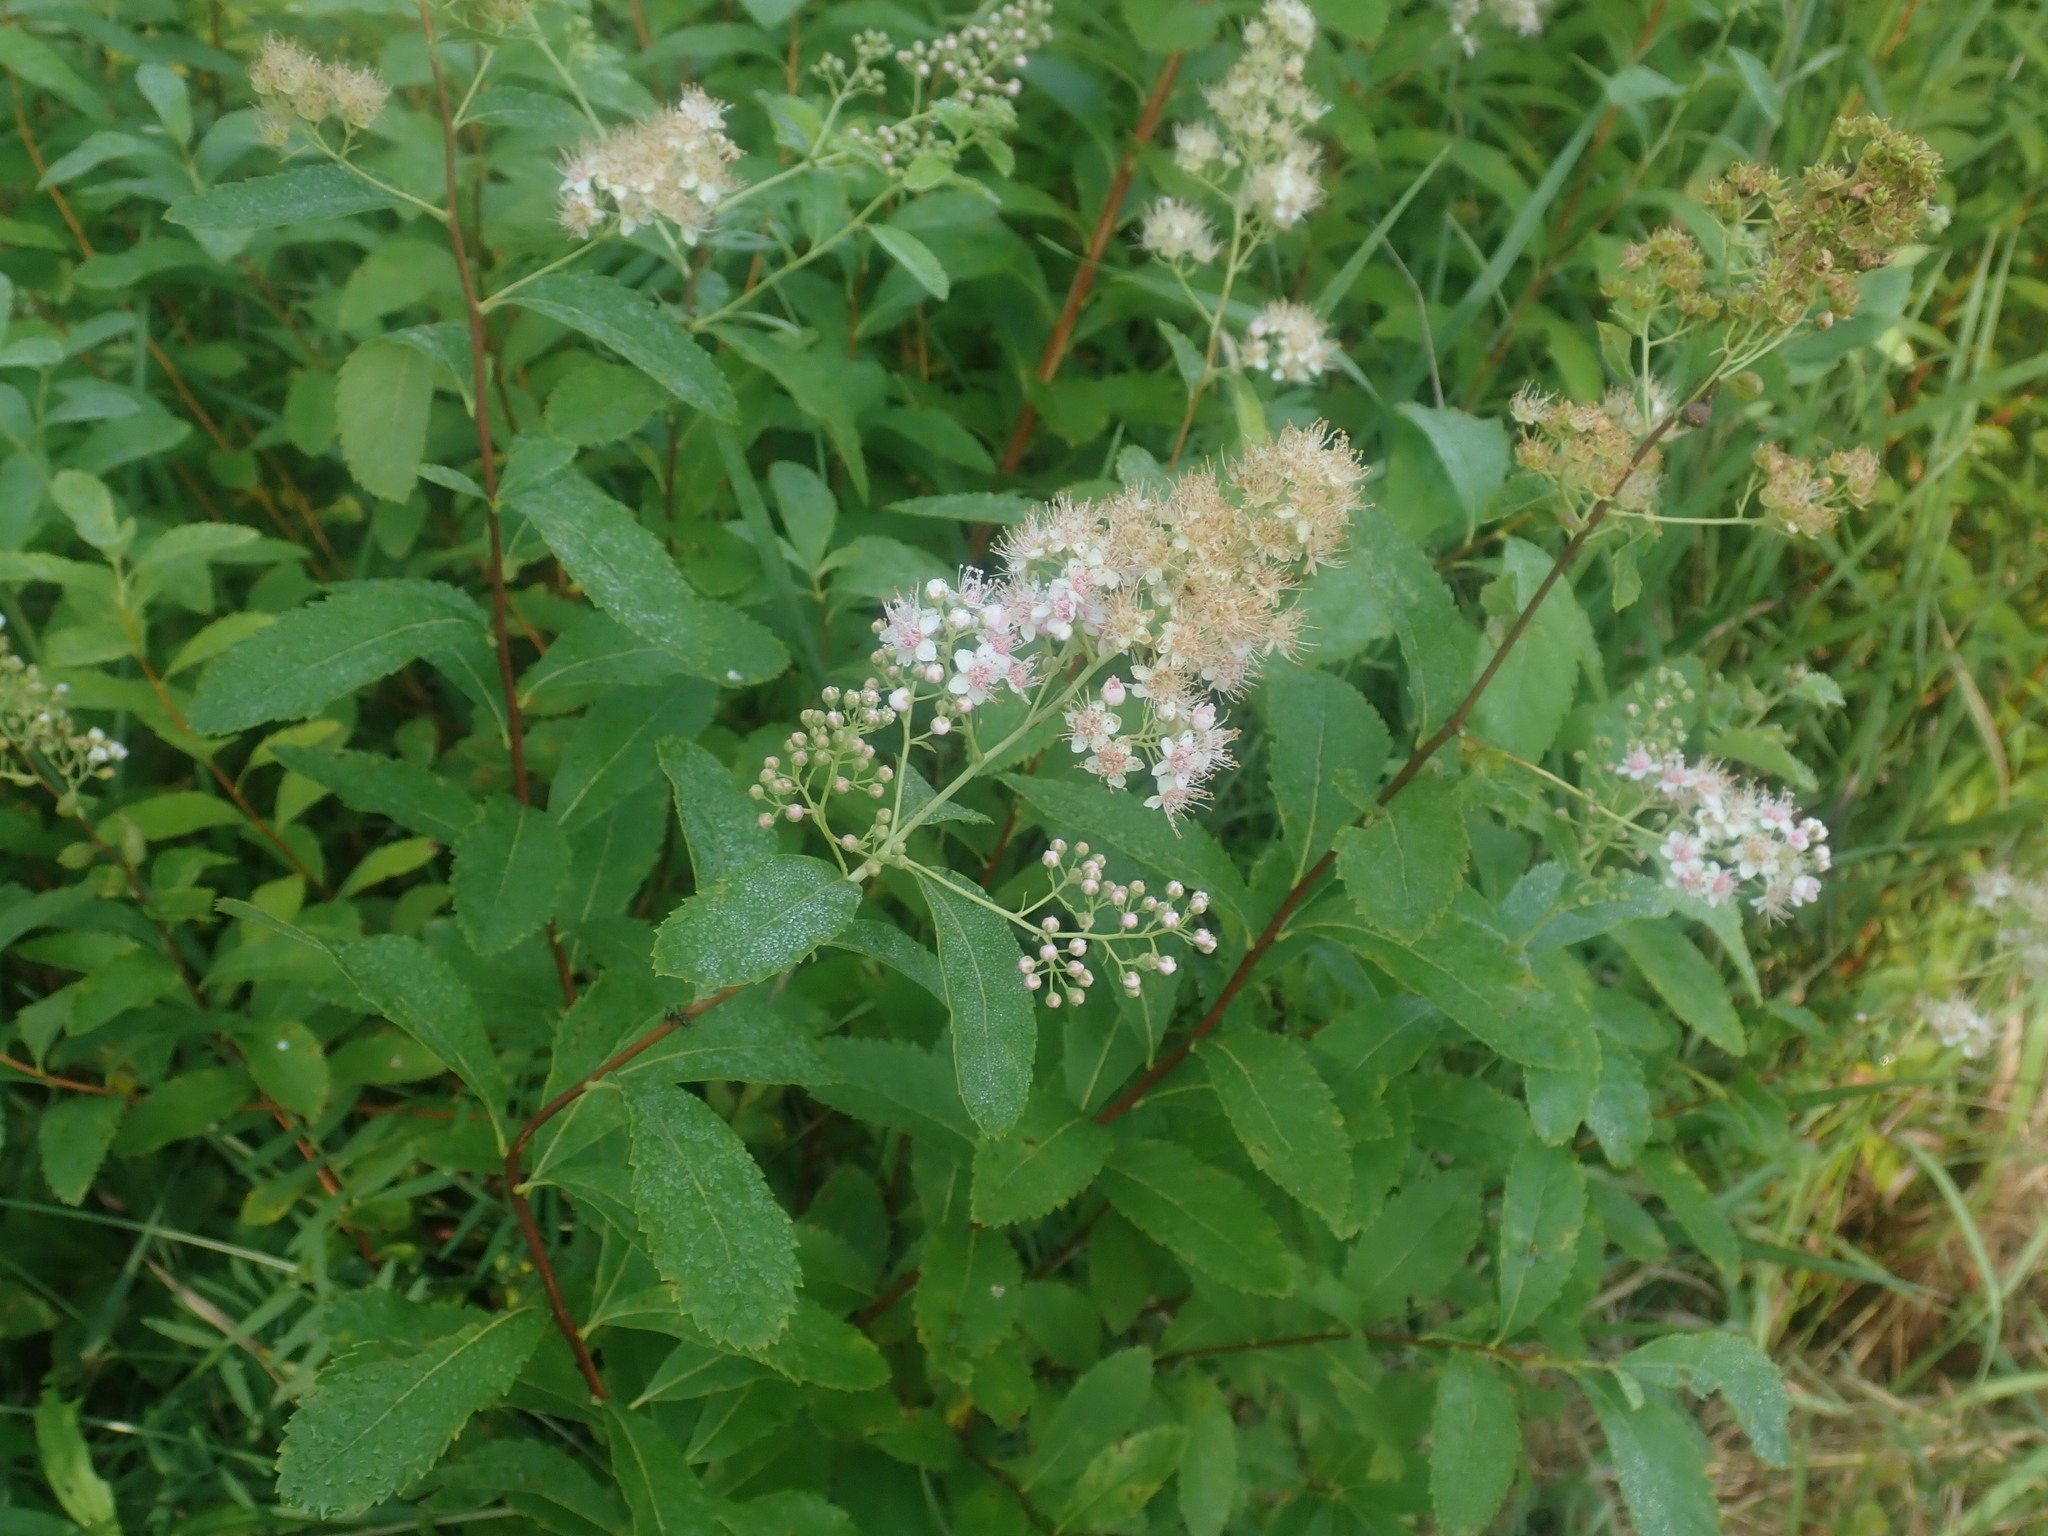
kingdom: Plantae
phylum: Tracheophyta
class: Magnoliopsida
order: Rosales
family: Rosaceae
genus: Spiraea
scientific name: Spiraea alba
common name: Pale bridewort
